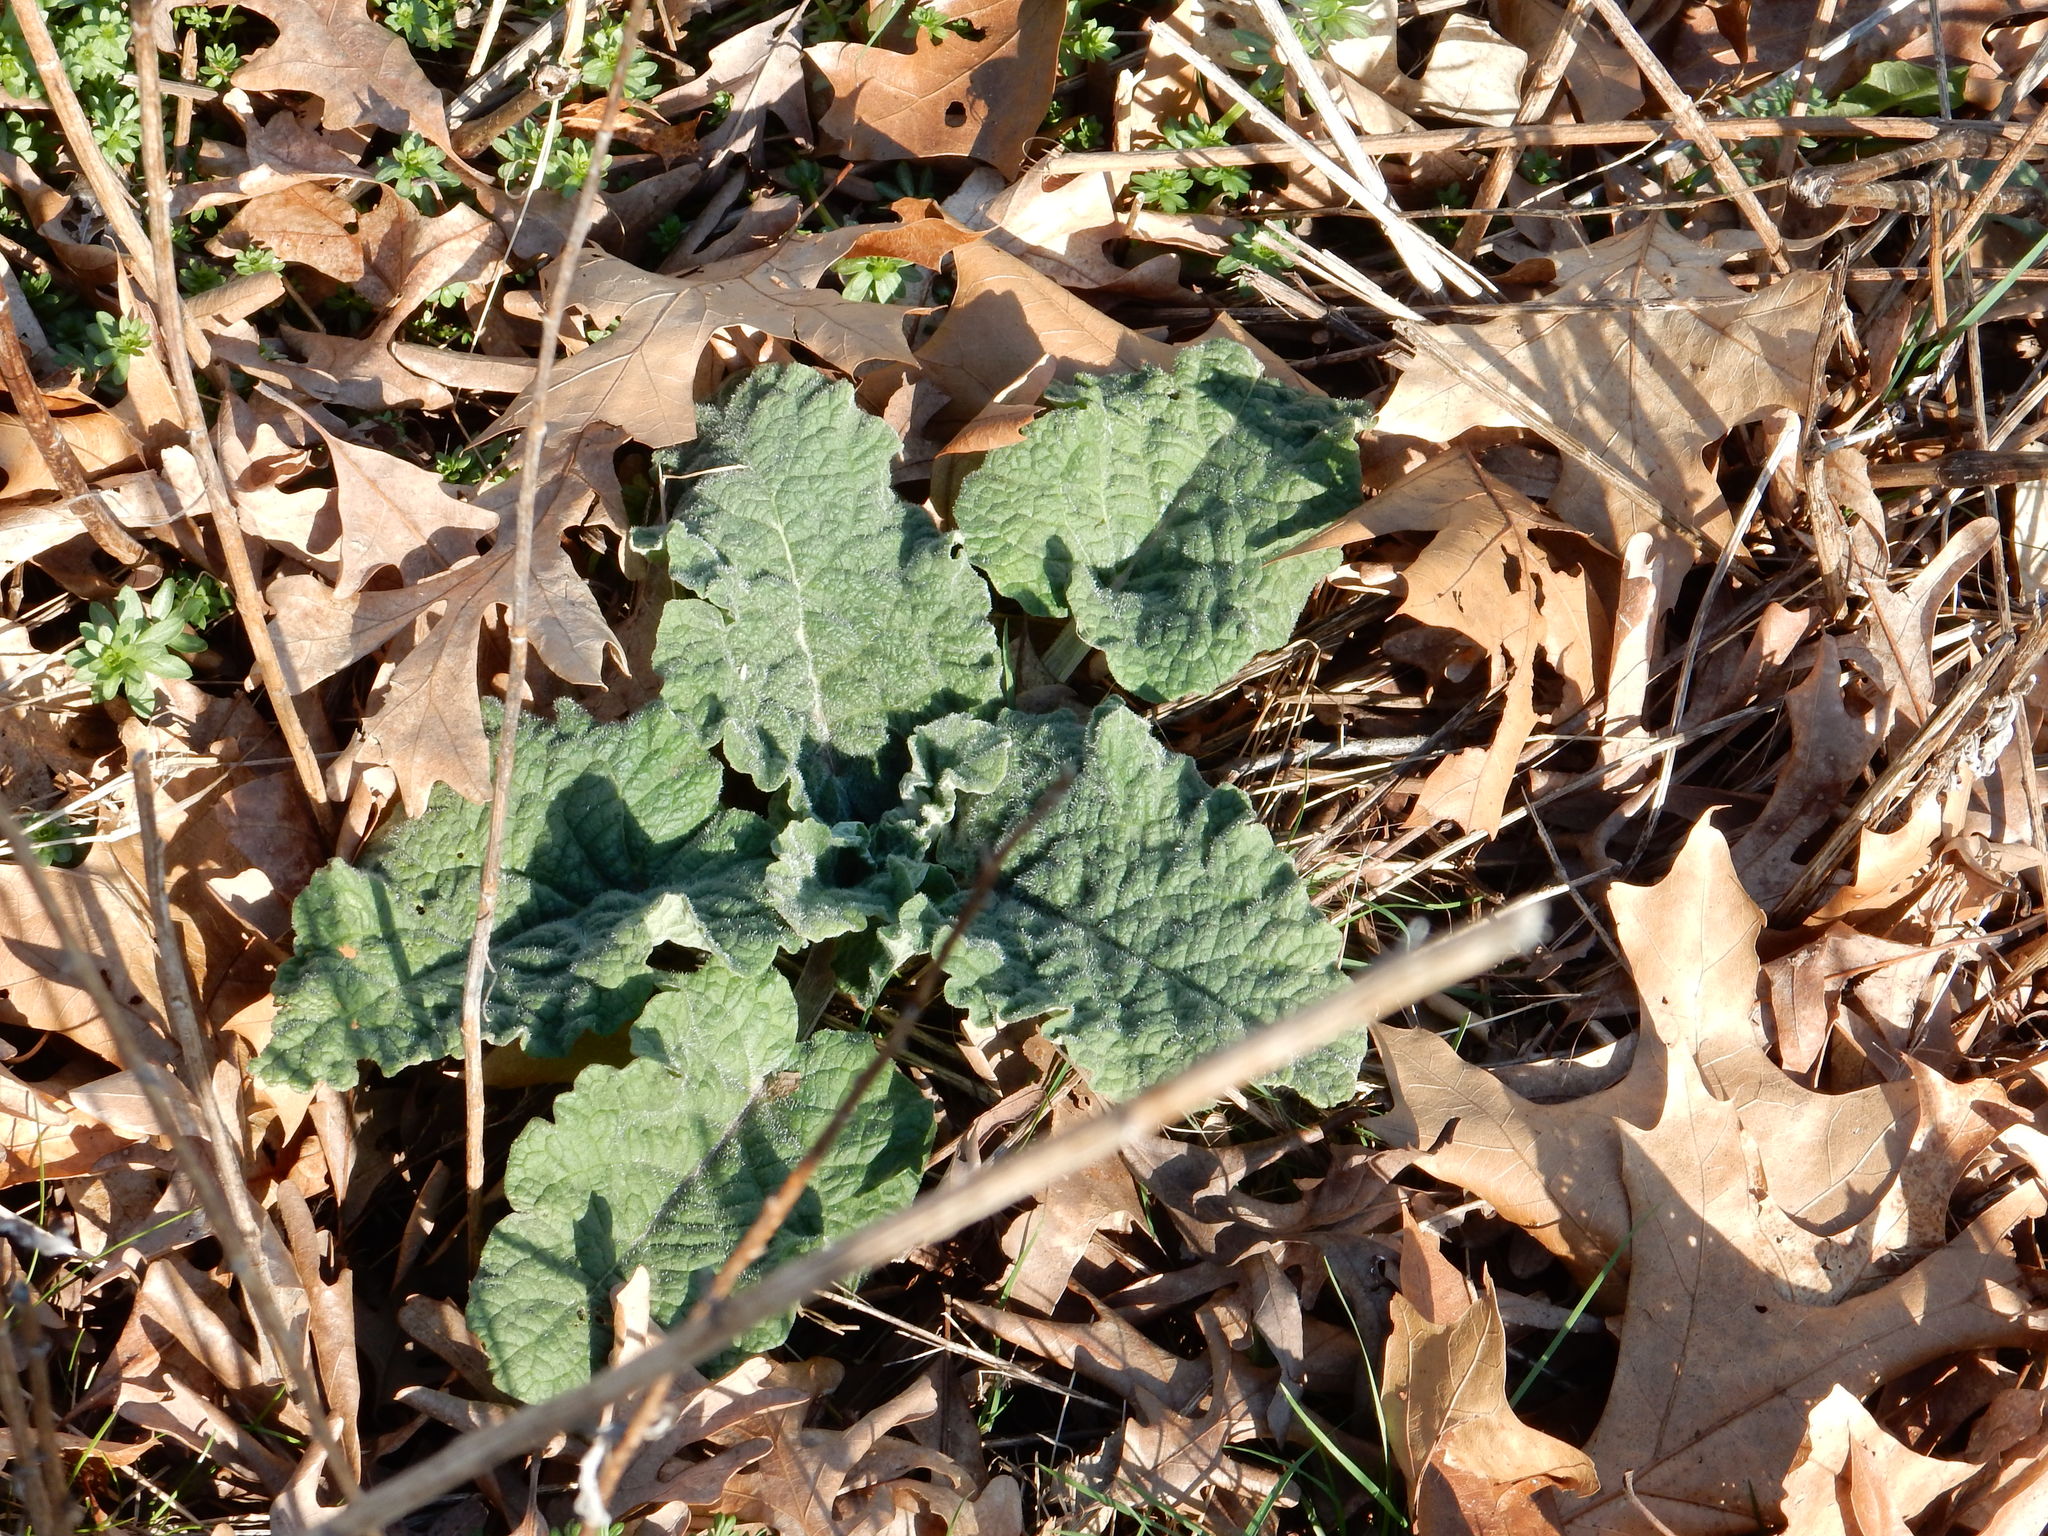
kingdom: Plantae
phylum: Tracheophyta
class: Magnoliopsida
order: Asterales
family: Asteraceae
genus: Arctium
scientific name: Arctium
